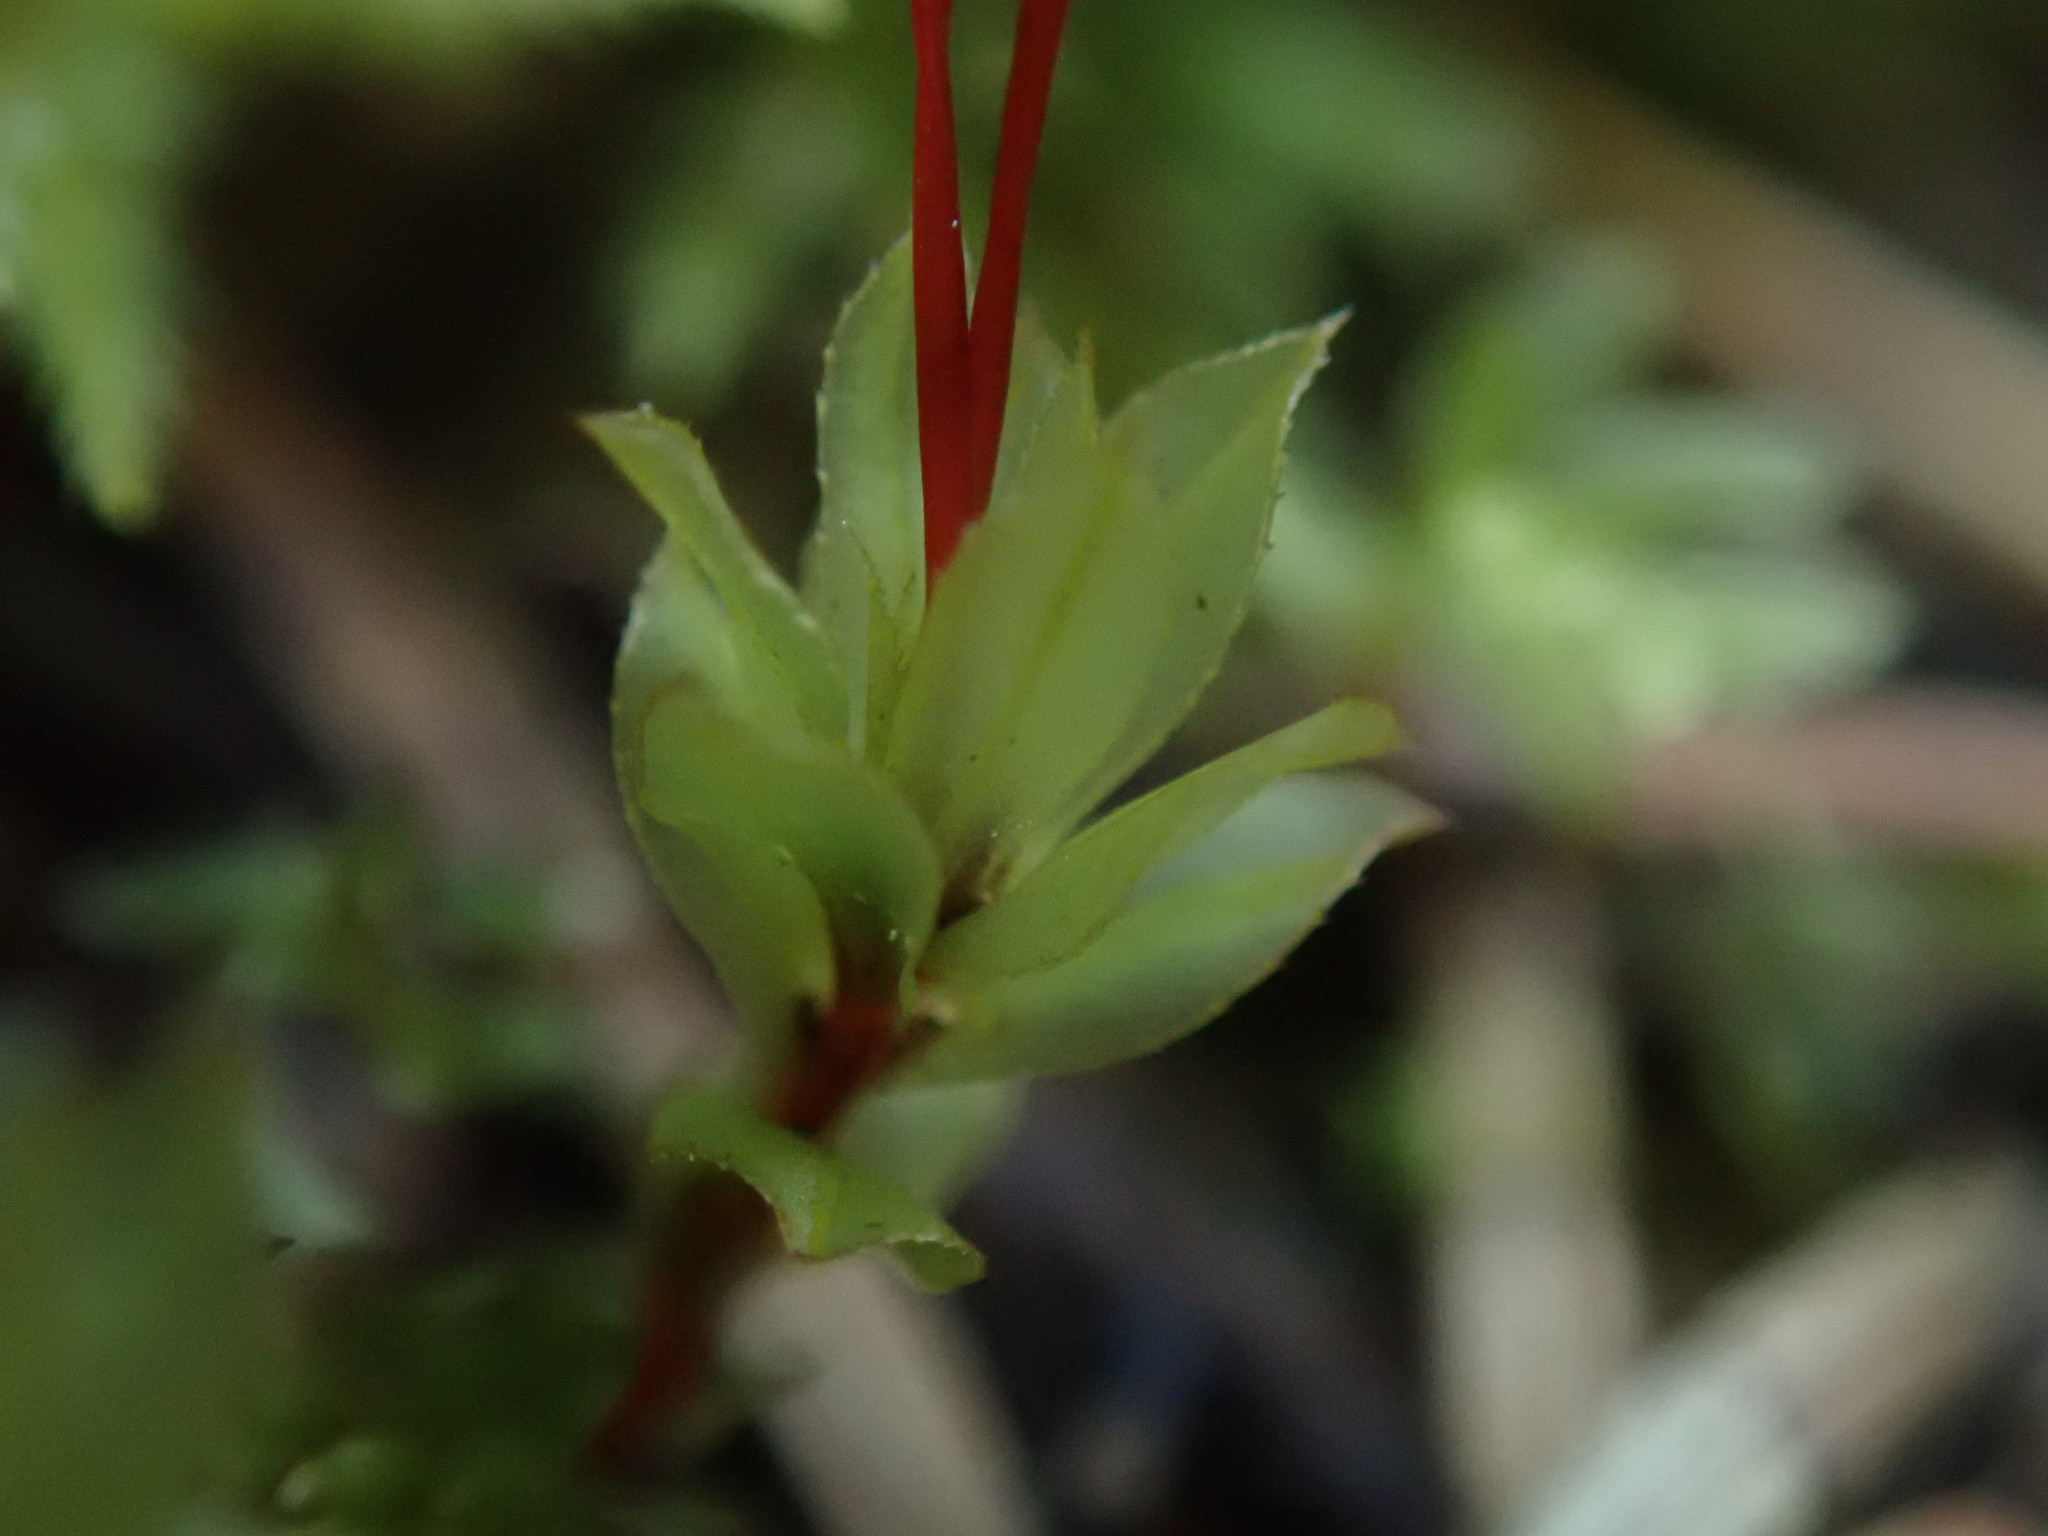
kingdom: Plantae
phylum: Bryophyta
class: Bryopsida
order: Bryales
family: Mniaceae
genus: Mnium
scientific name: Mnium spinulosum
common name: Red-mouthed leafy moss
